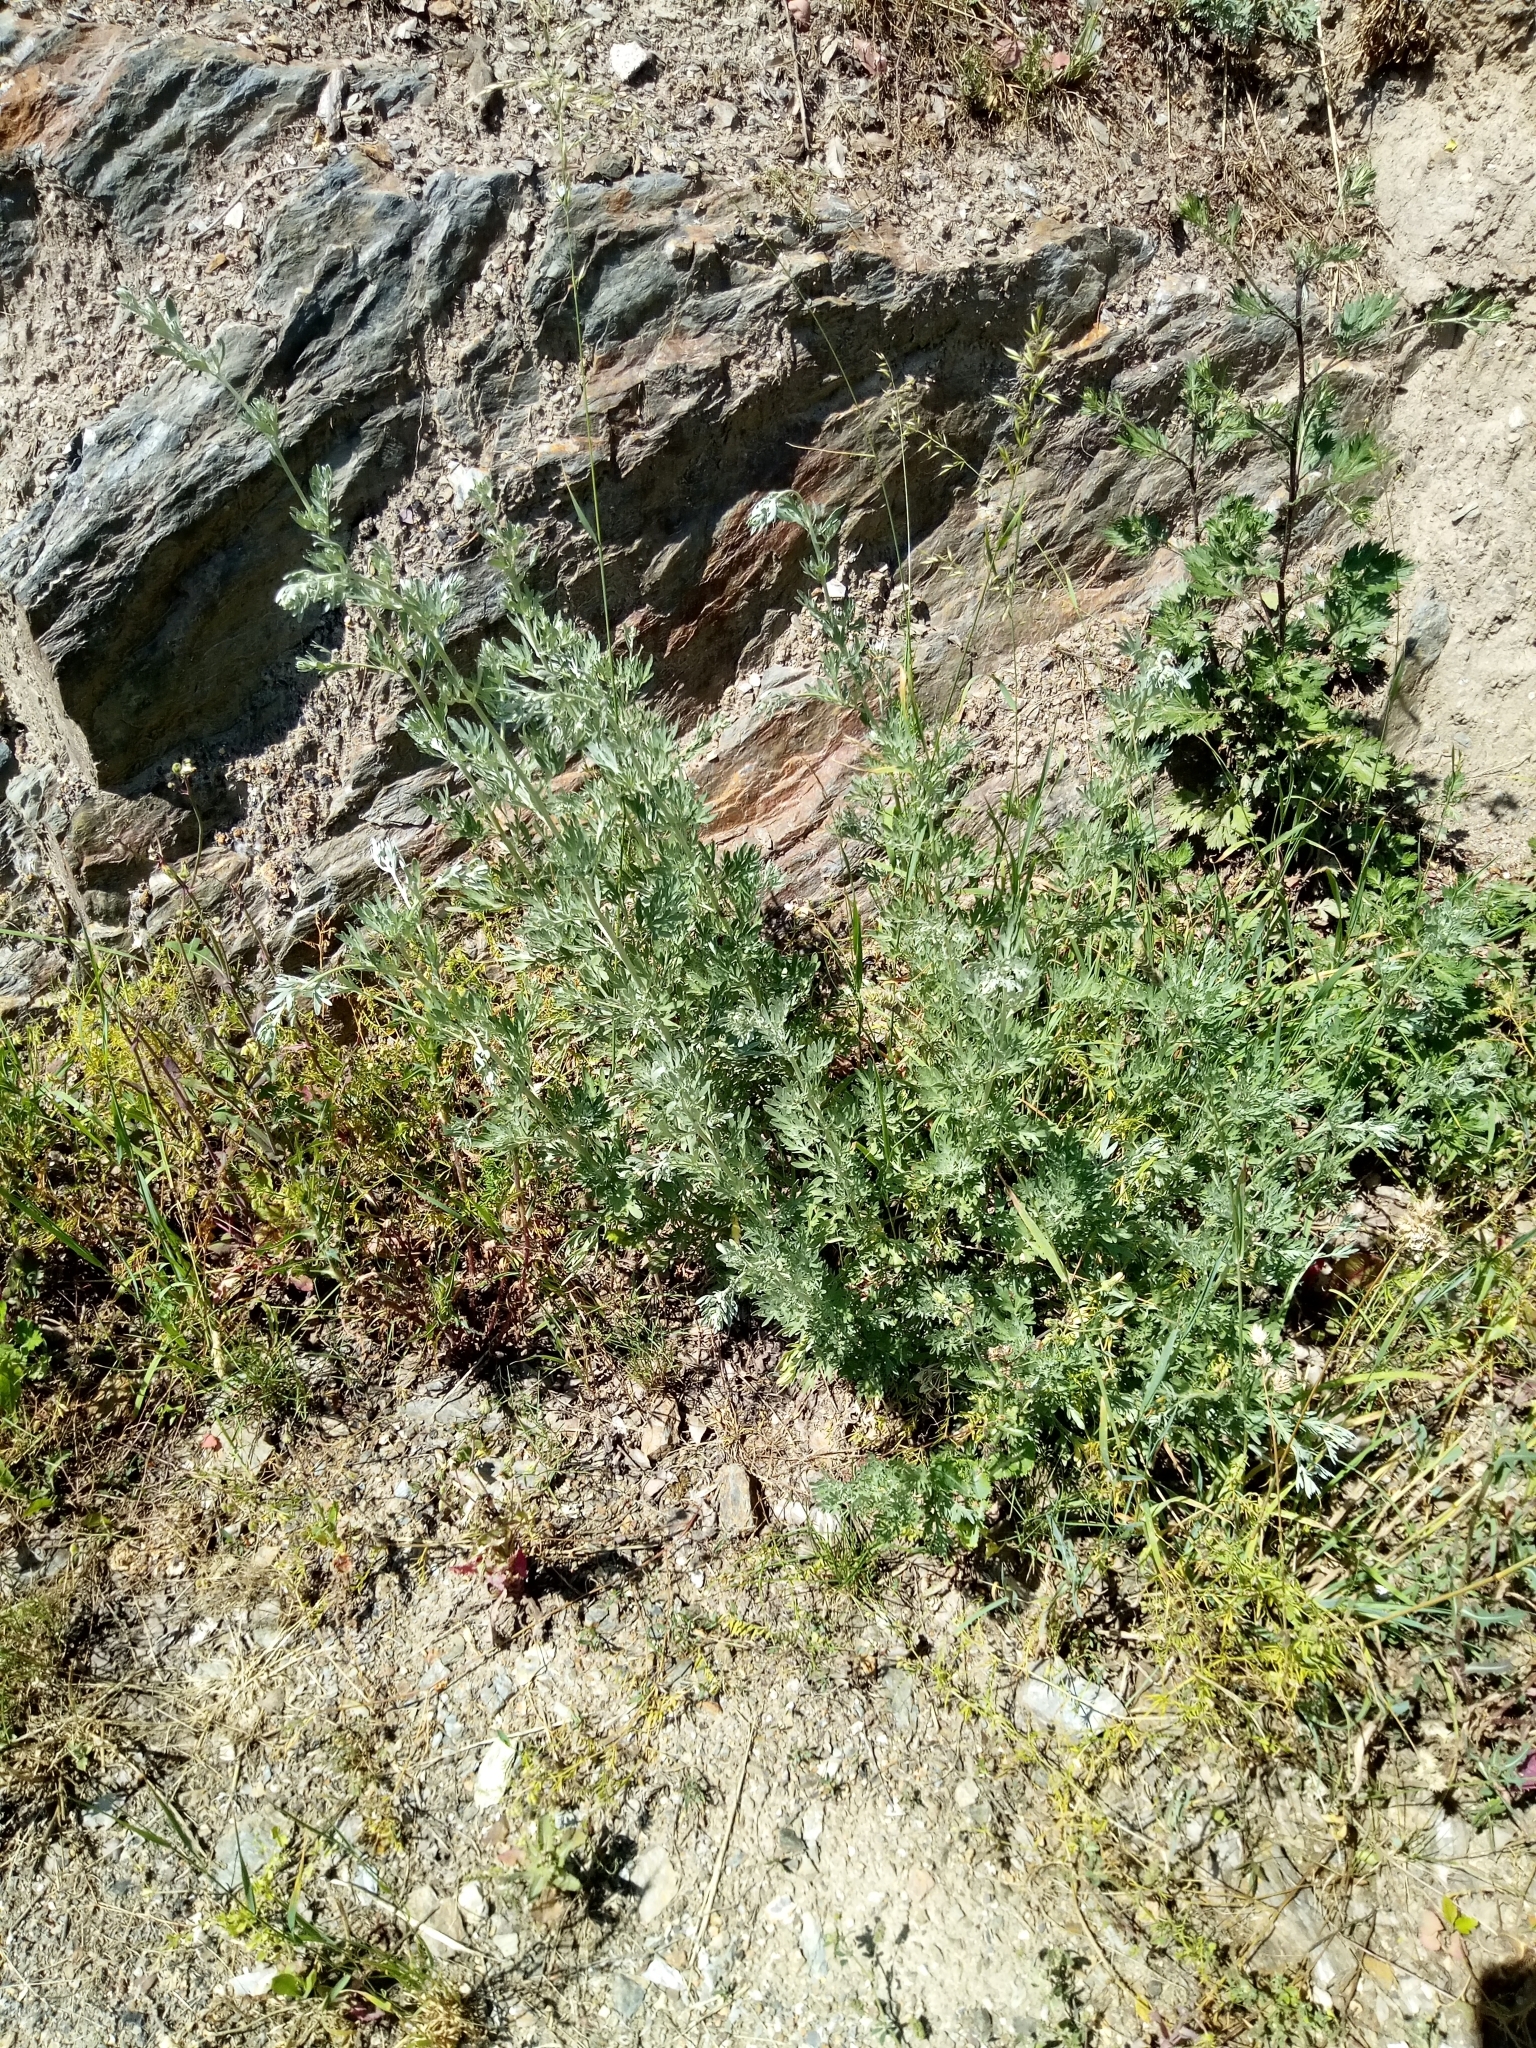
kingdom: Plantae
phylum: Tracheophyta
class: Magnoliopsida
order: Asterales
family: Asteraceae
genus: Artemisia
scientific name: Artemisia absinthium
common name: Wormwood
